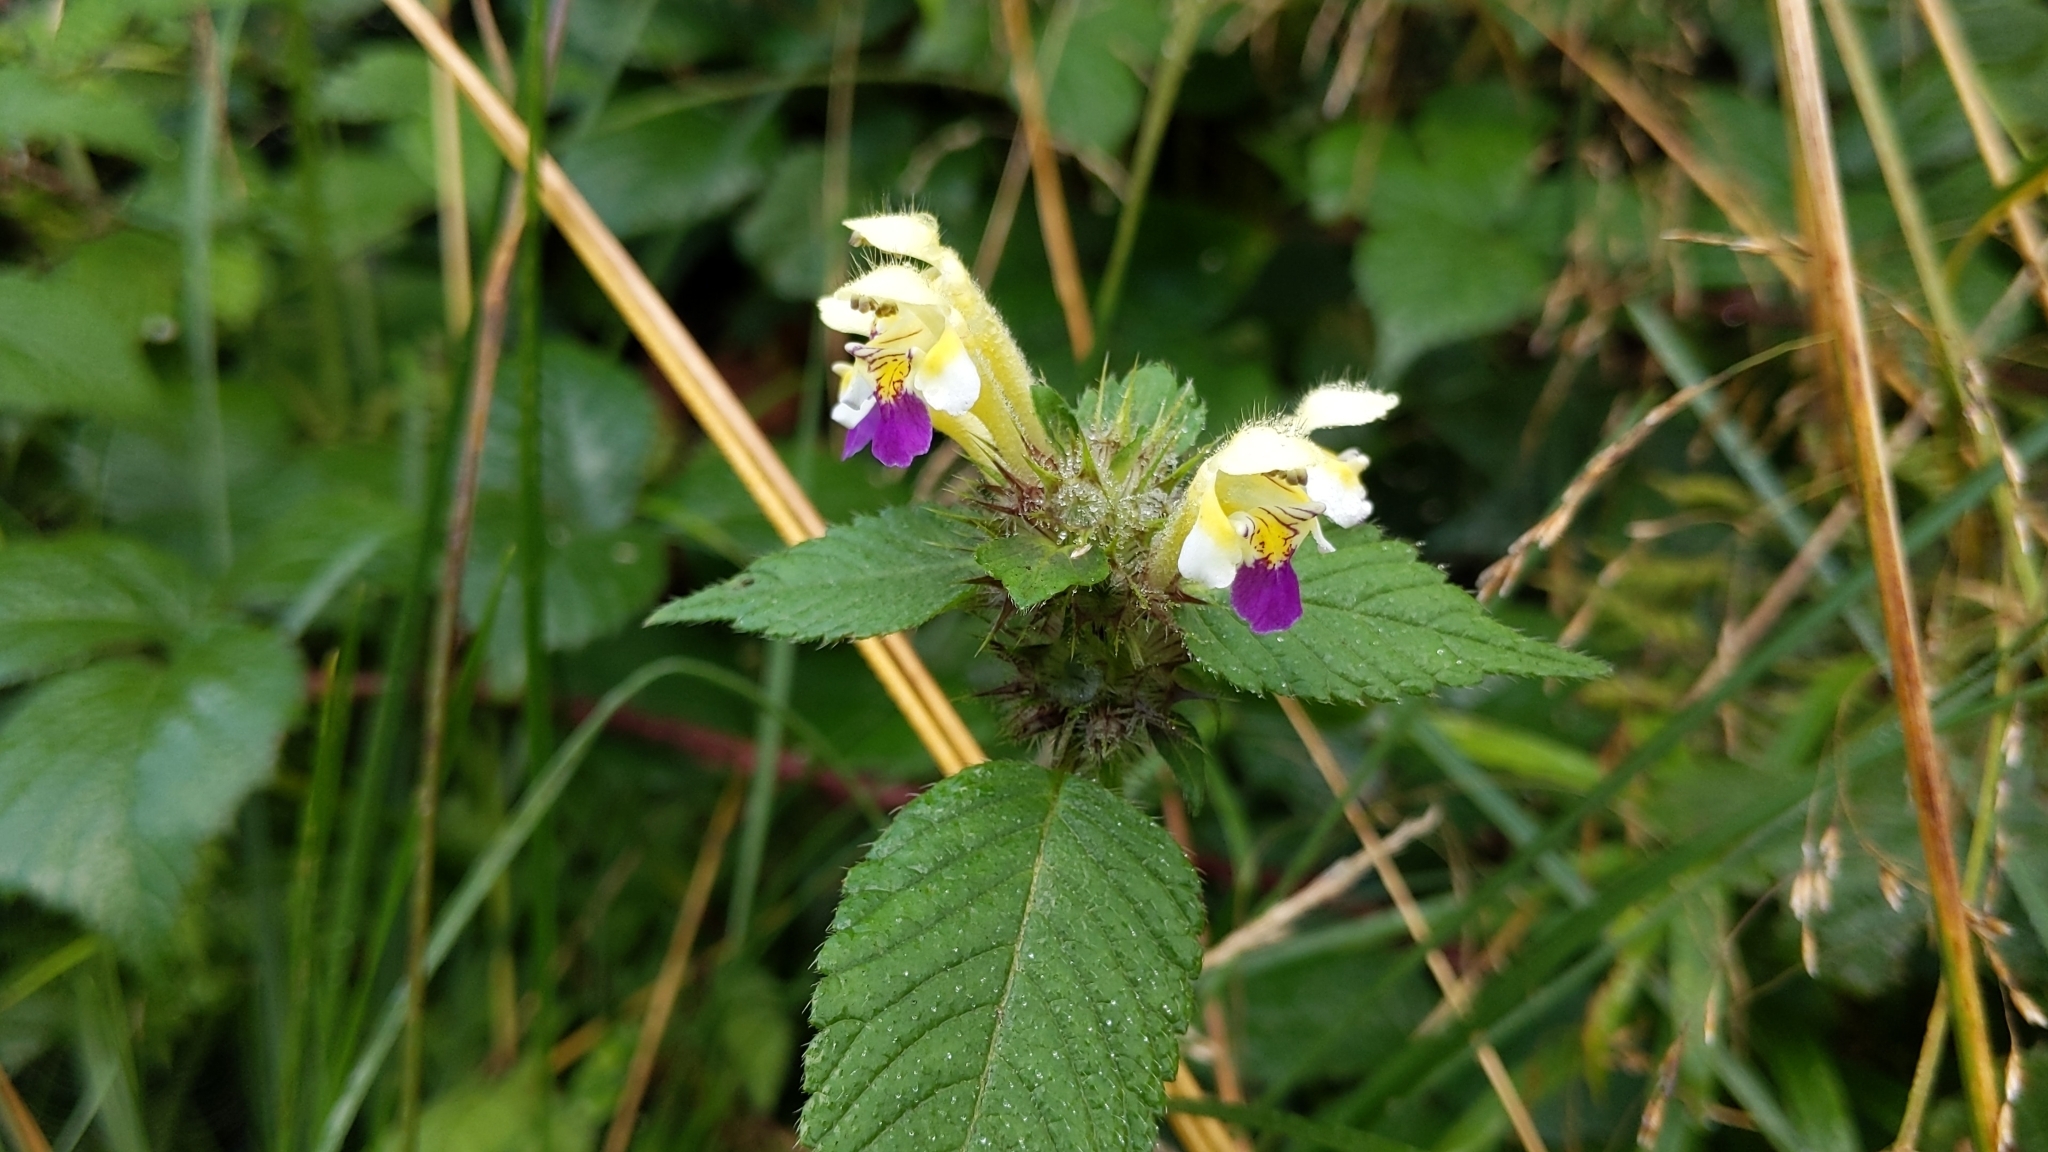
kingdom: Plantae
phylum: Tracheophyta
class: Magnoliopsida
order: Lamiales
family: Lamiaceae
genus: Galeopsis
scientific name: Galeopsis speciosa
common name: Large-flowered hemp-nettle
